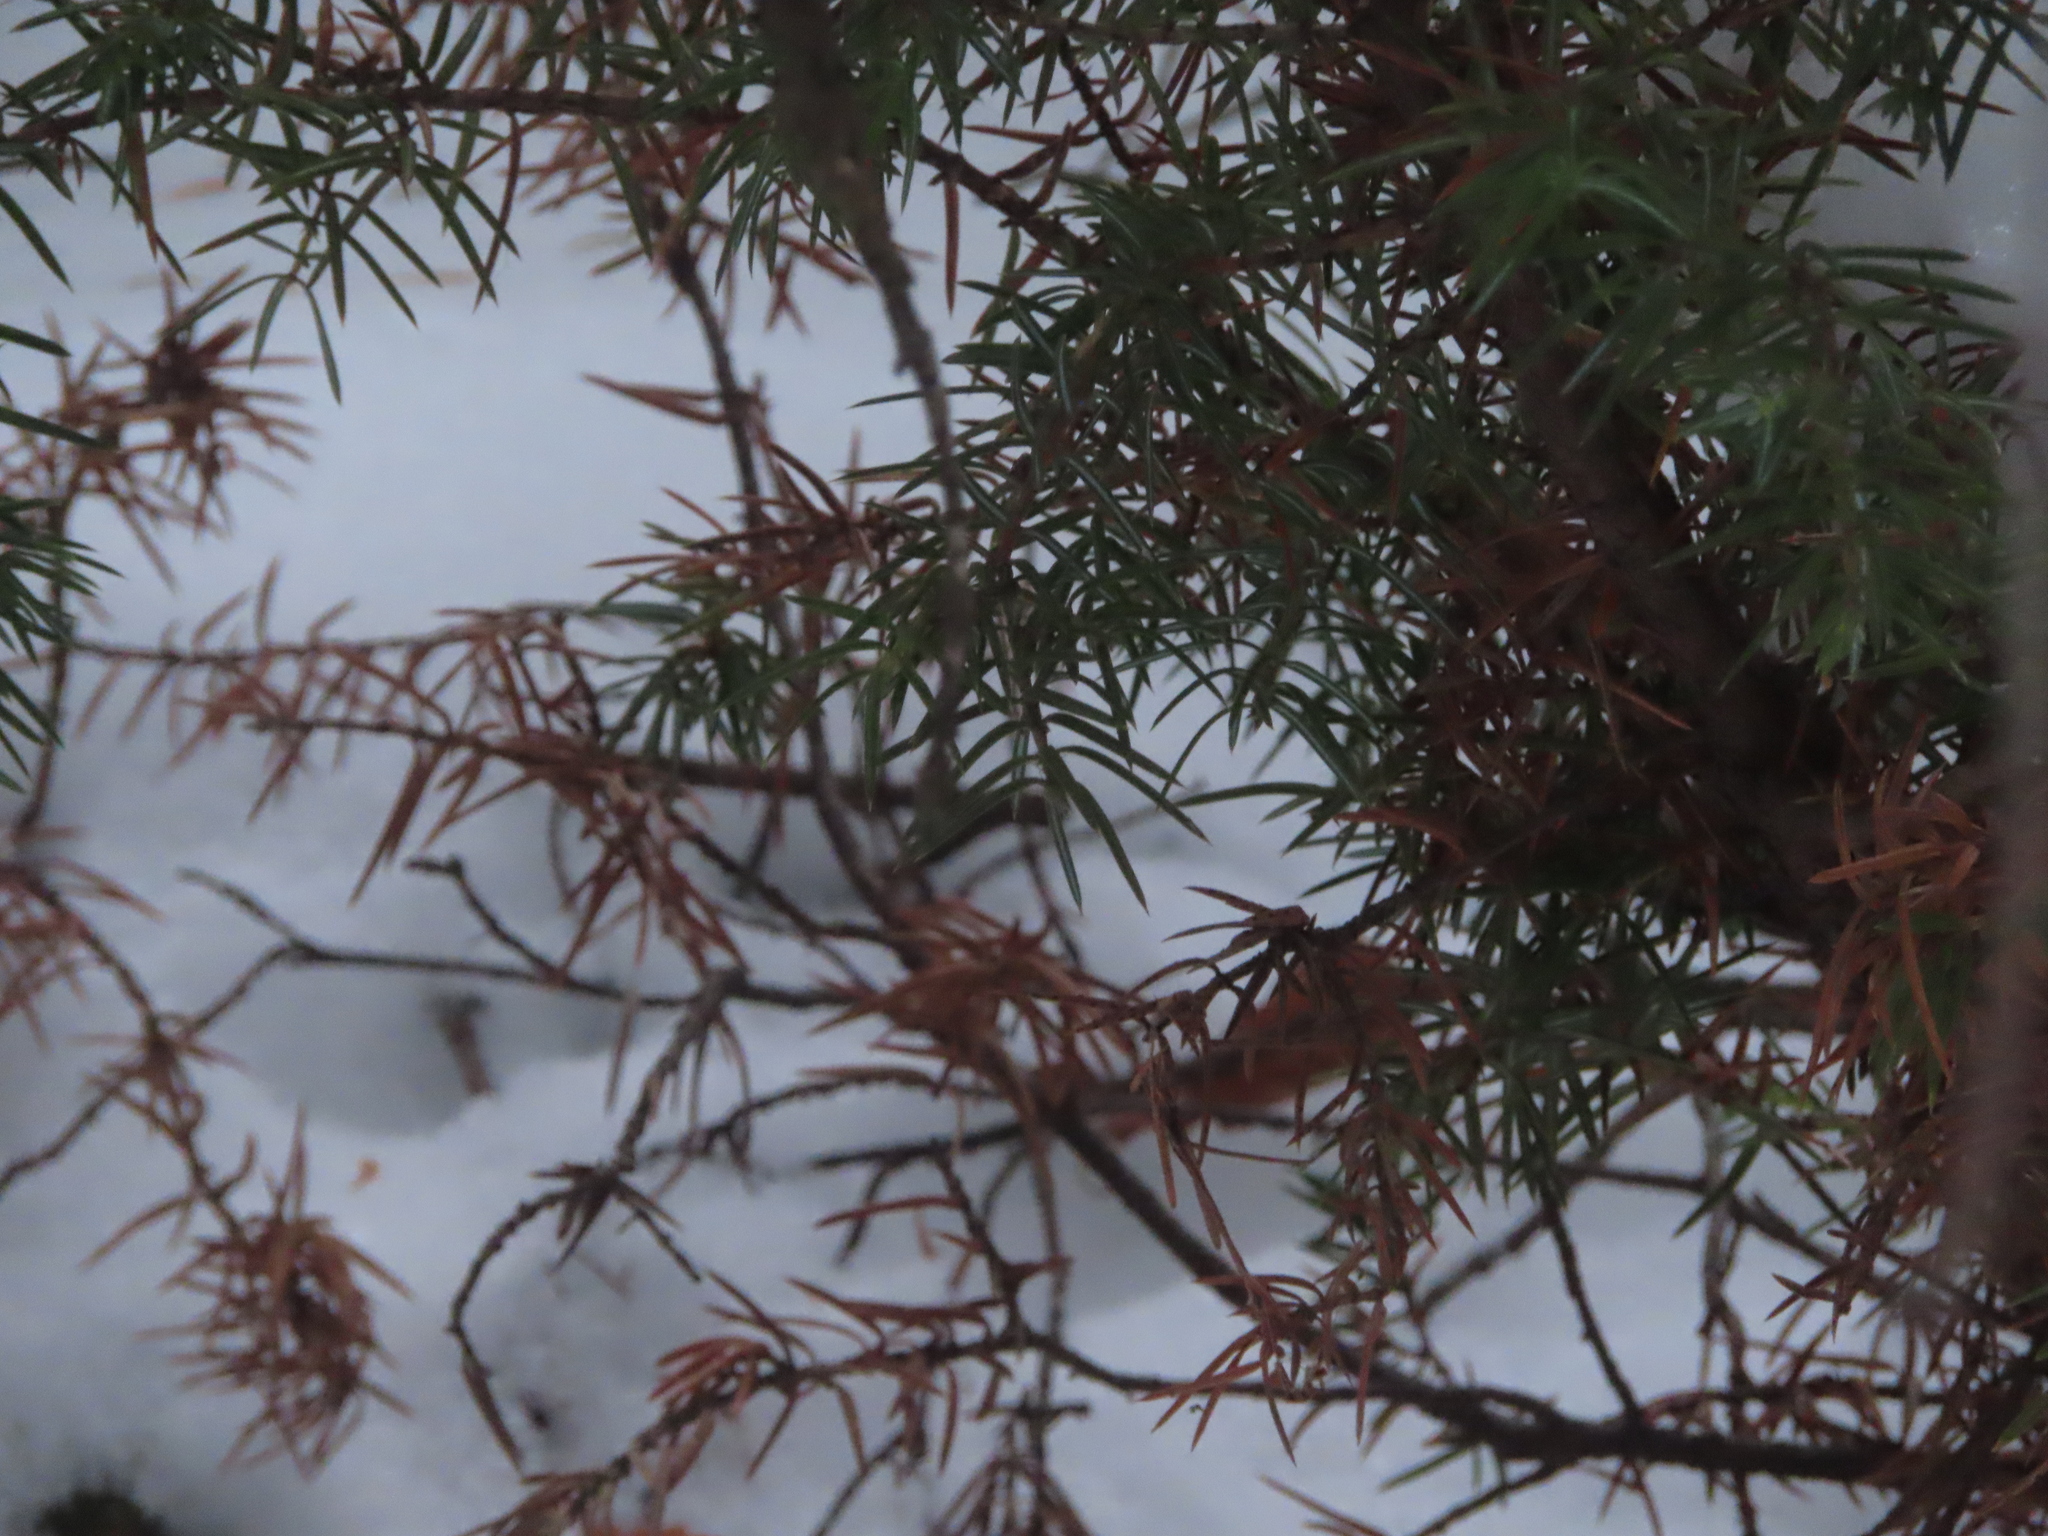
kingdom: Plantae
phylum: Tracheophyta
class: Pinopsida
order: Pinales
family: Cupressaceae
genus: Juniperus
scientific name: Juniperus communis
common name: Common juniper
